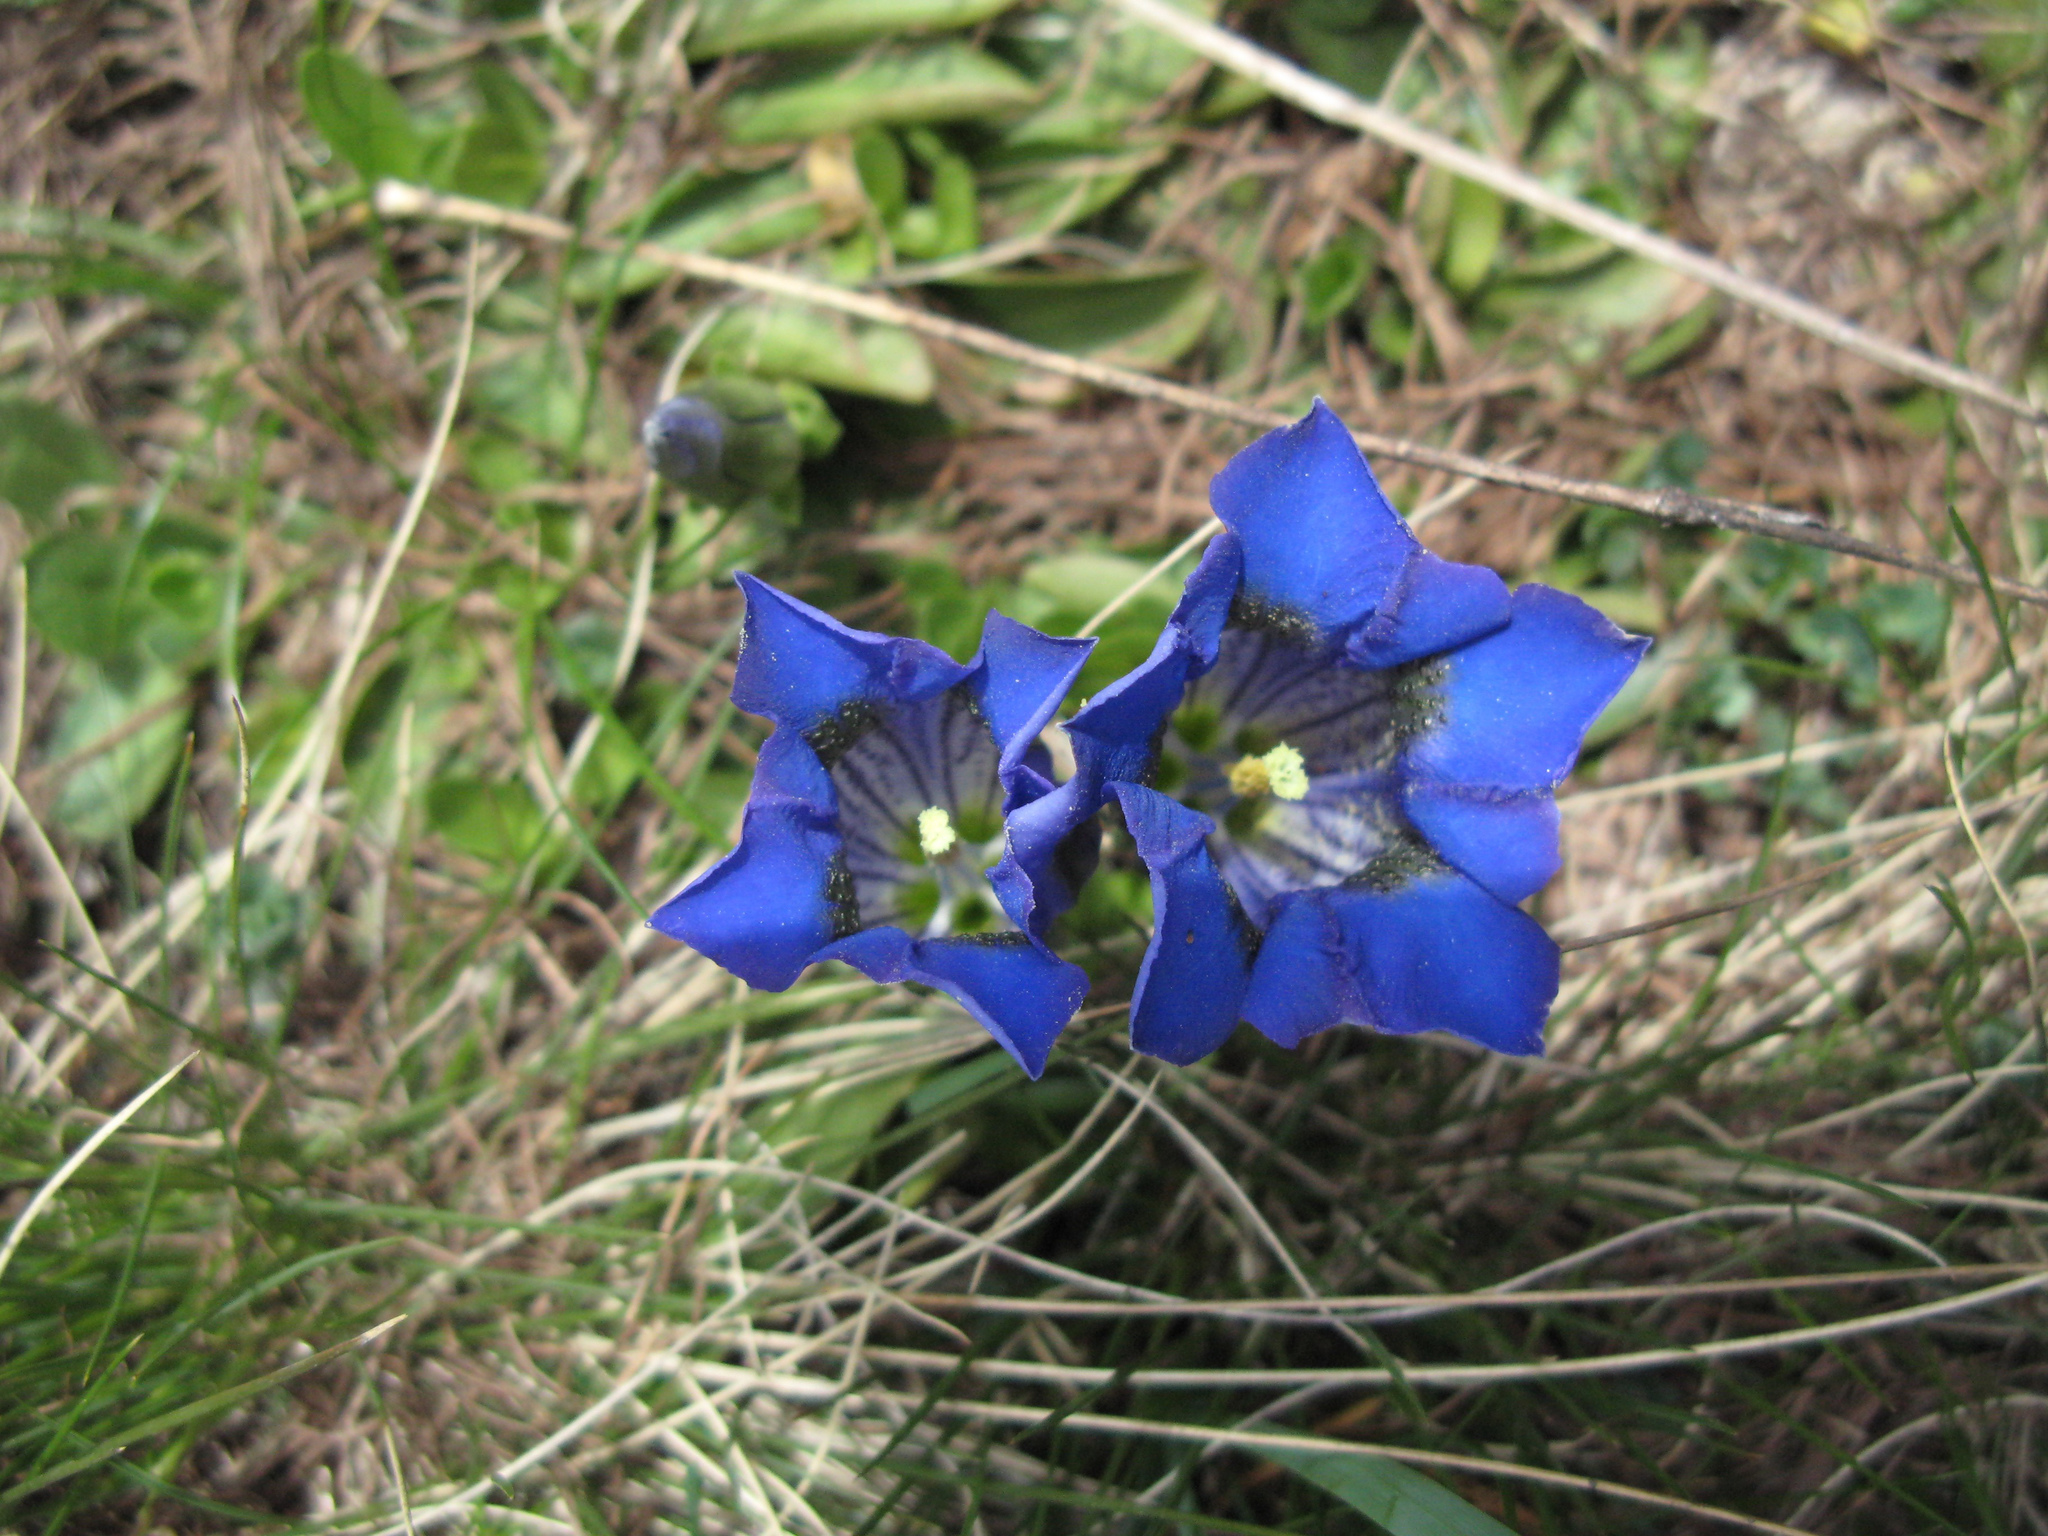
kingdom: Plantae
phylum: Tracheophyta
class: Magnoliopsida
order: Gentianales
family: Gentianaceae
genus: Gentiana
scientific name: Gentiana acaulis
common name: Trumpet gentian
